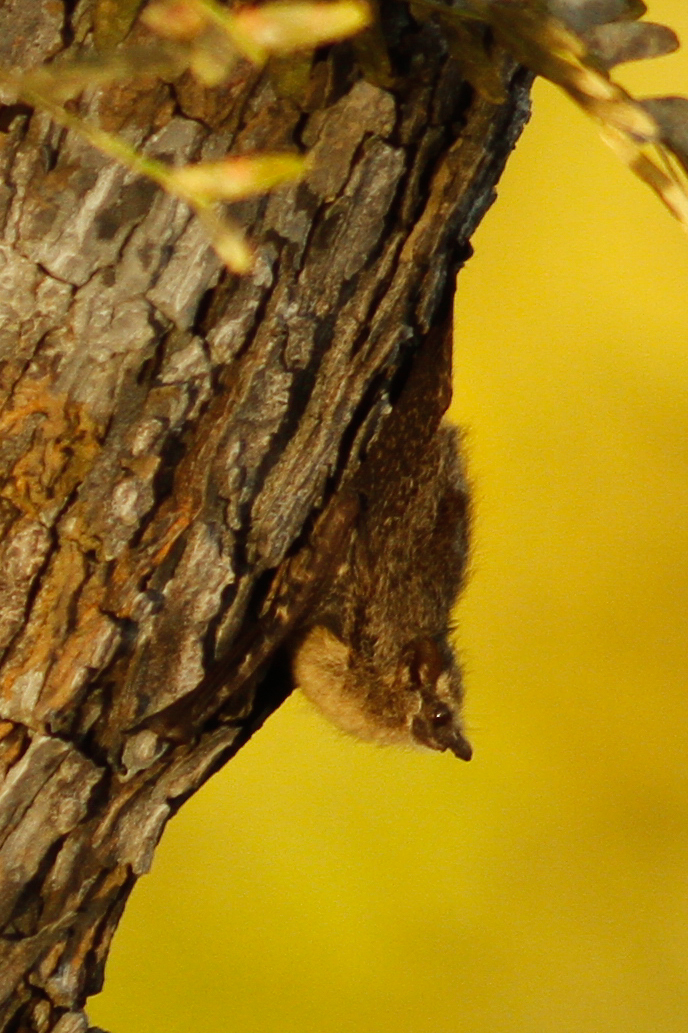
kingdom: Animalia
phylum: Chordata
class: Mammalia
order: Chiroptera
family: Emballonuridae
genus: Rhynchonycteris
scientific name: Rhynchonycteris naso
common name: Proboscis bat
